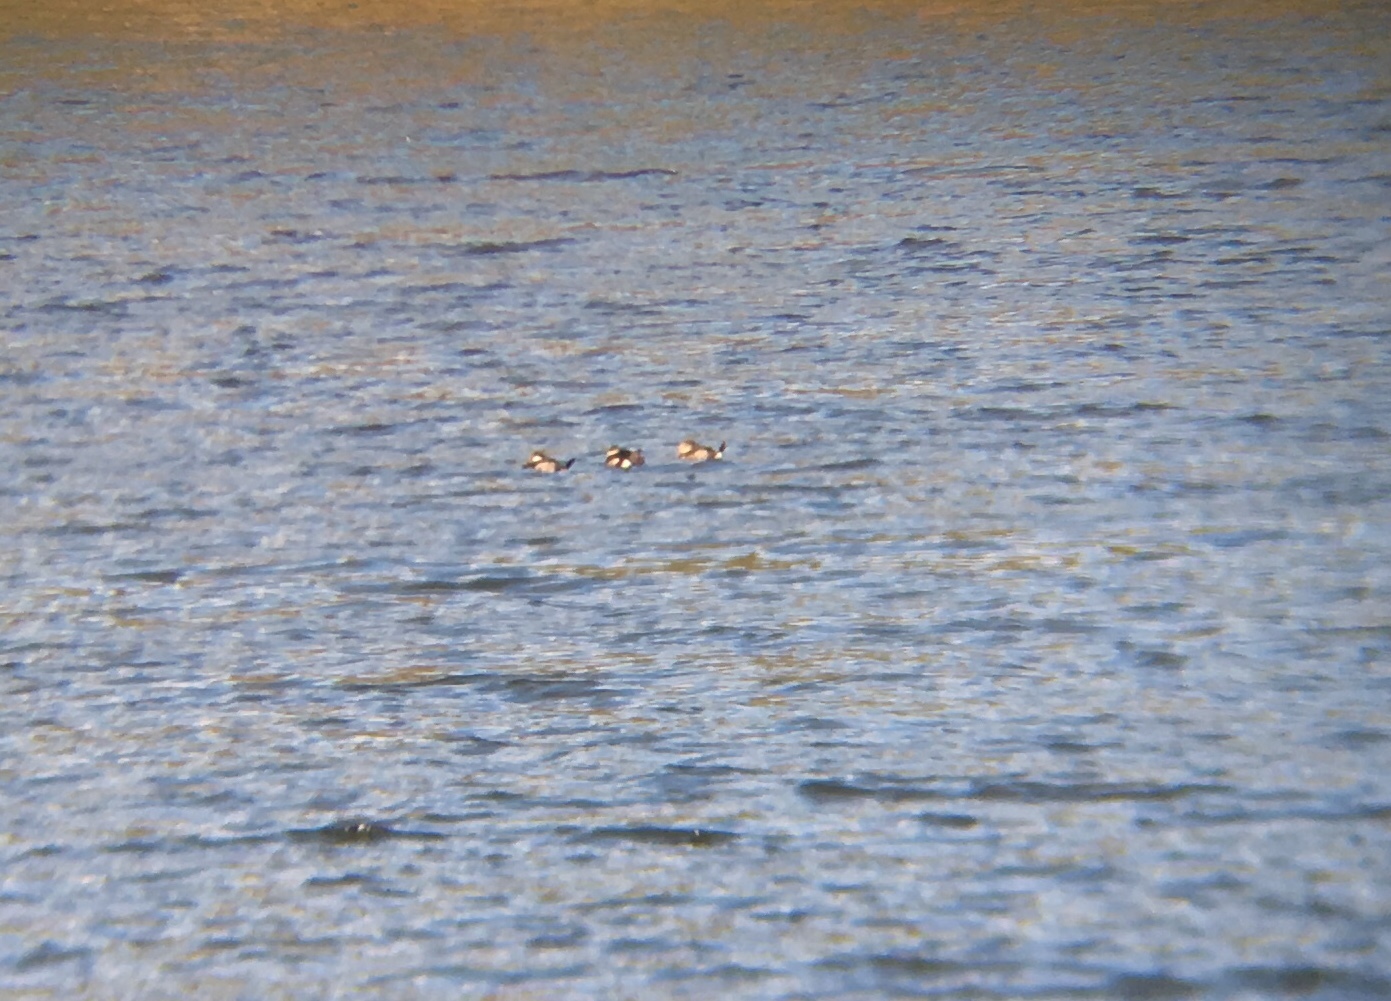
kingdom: Animalia
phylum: Chordata
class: Aves
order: Anseriformes
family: Anatidae
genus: Oxyura
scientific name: Oxyura jamaicensis
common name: Ruddy duck
